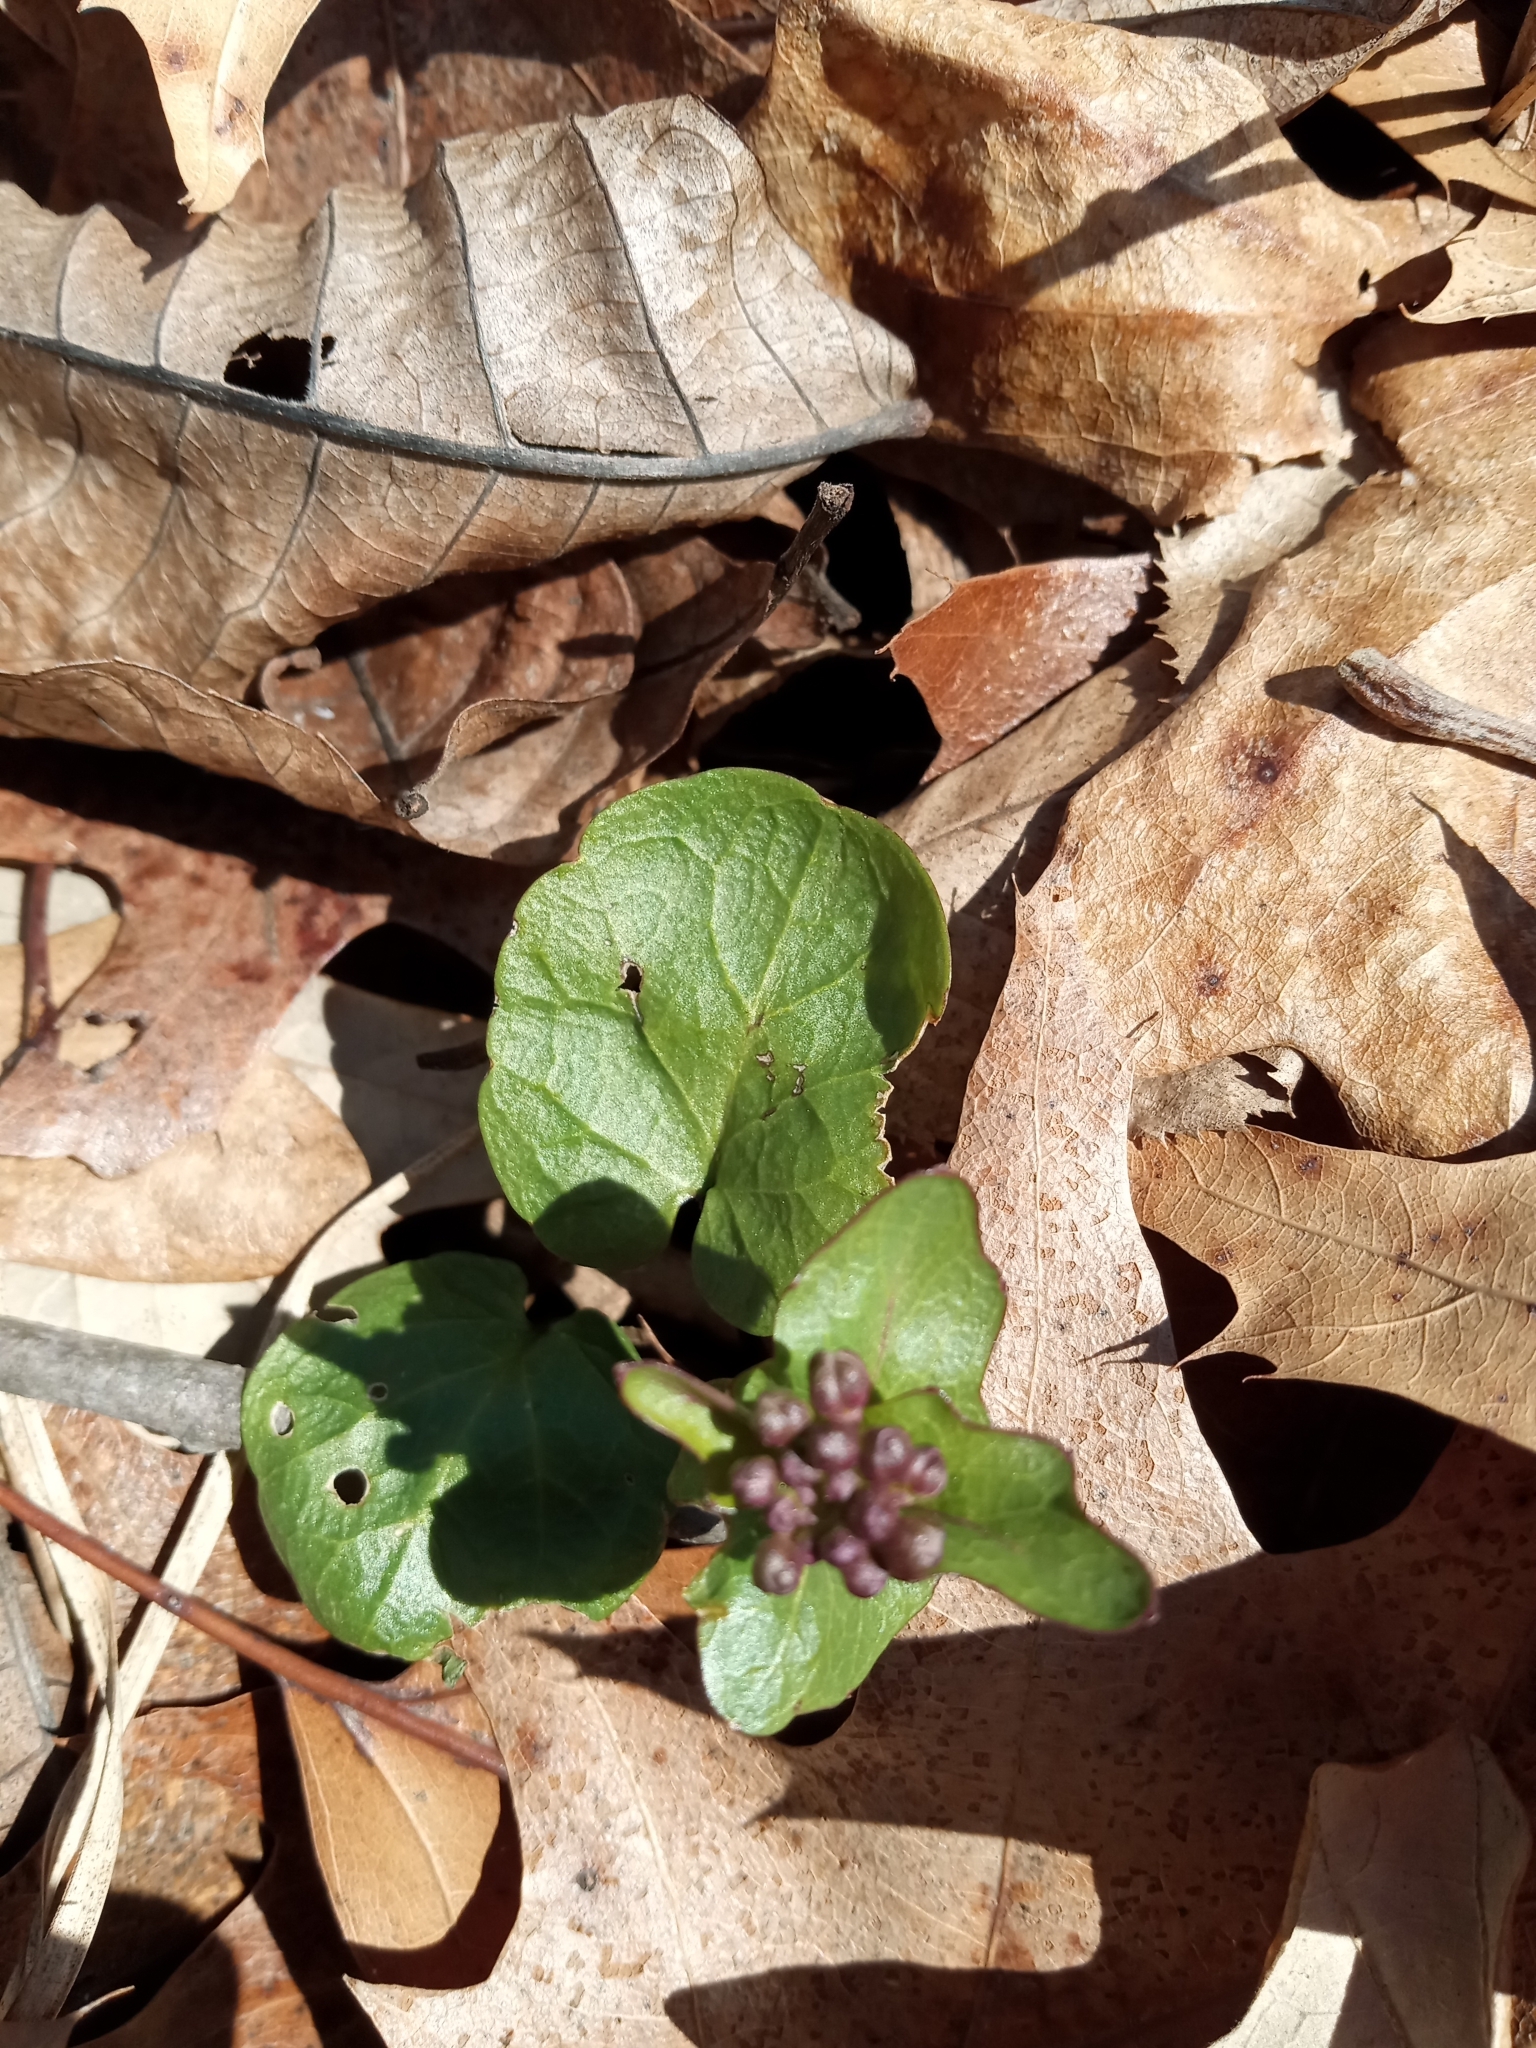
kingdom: Plantae
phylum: Tracheophyta
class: Magnoliopsida
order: Brassicales
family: Brassicaceae
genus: Cardamine
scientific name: Cardamine douglassii
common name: Purple cress
